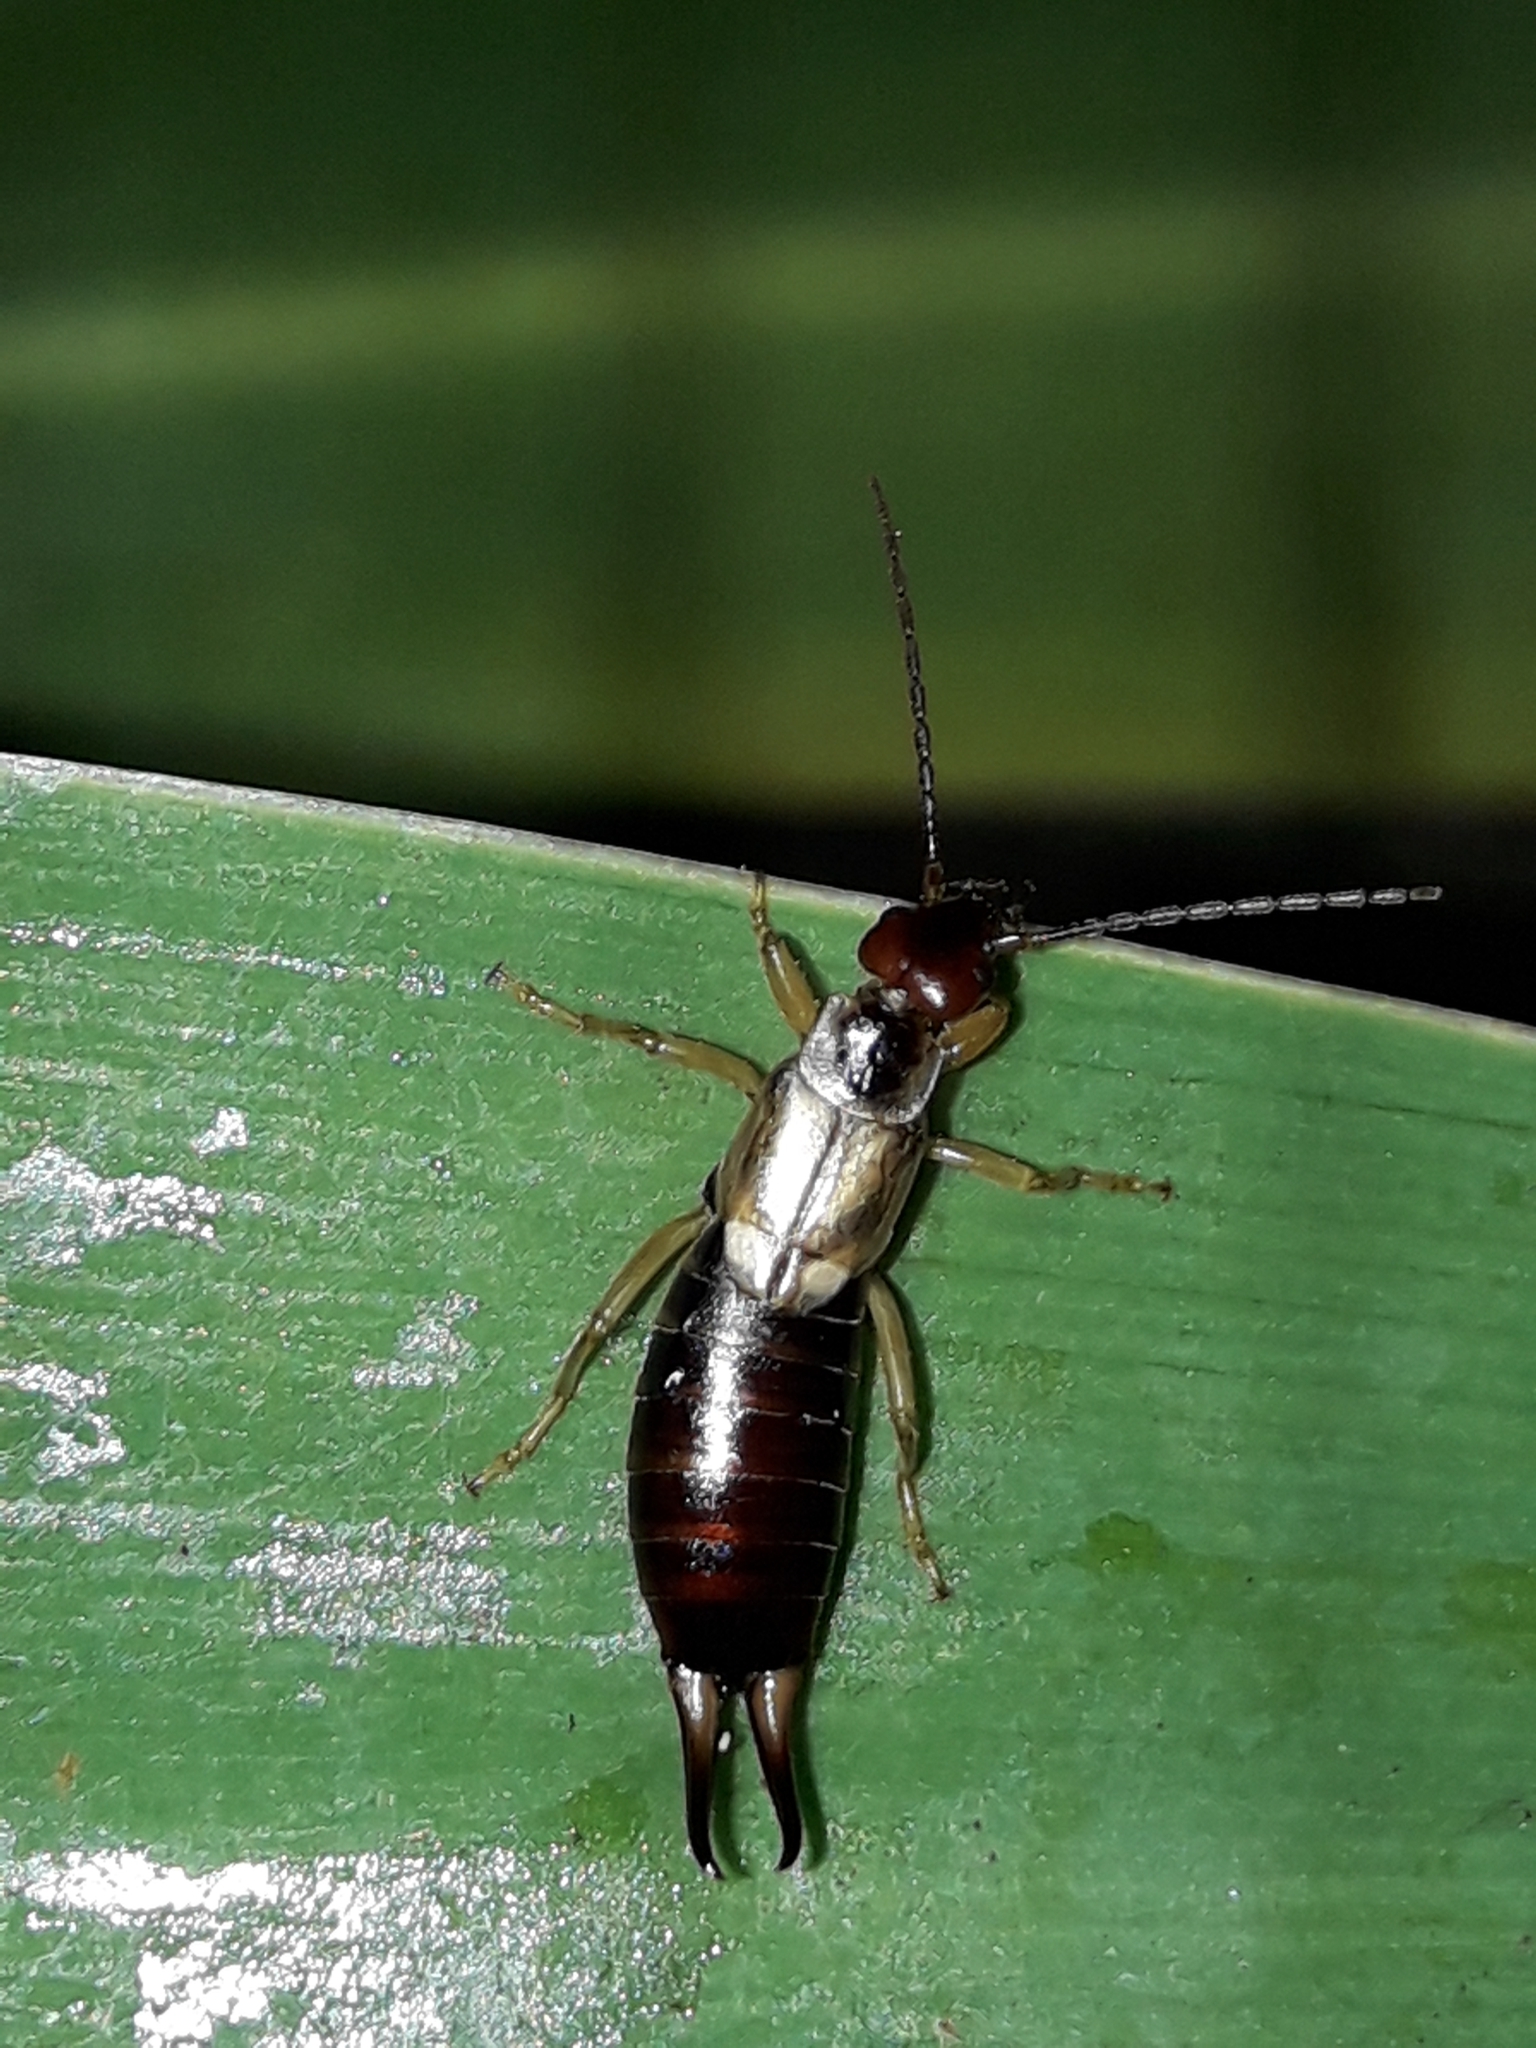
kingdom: Animalia
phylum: Arthropoda
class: Insecta
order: Dermaptera
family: Forficulidae
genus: Forficula
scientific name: Forficula
